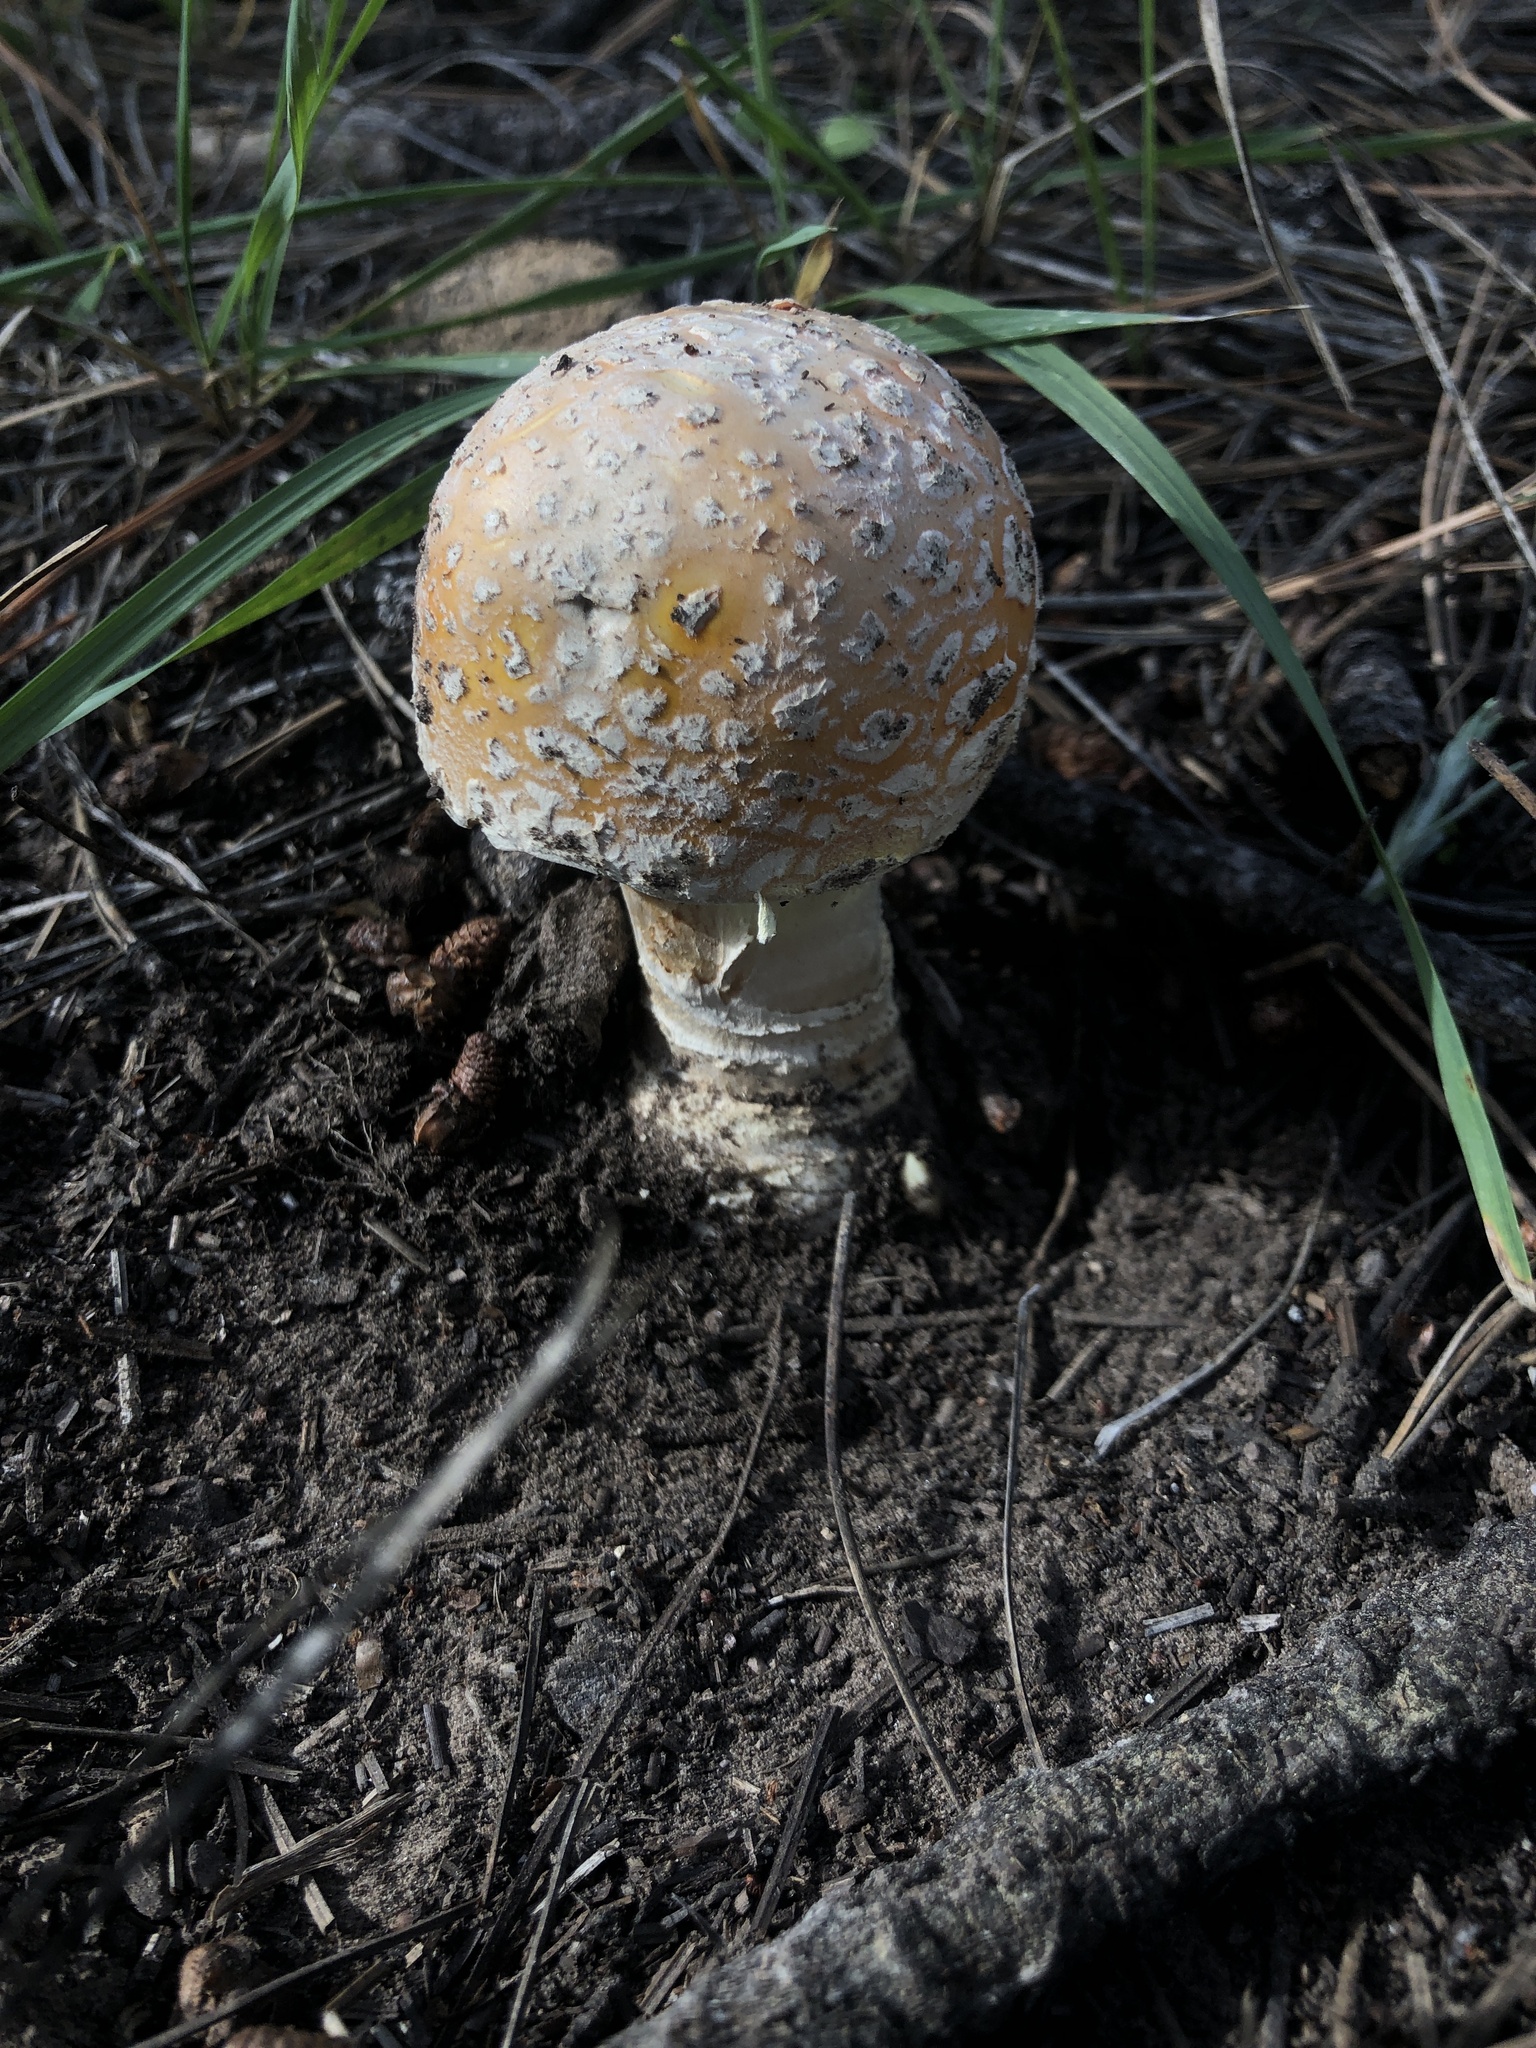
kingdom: Fungi
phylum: Basidiomycota
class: Agaricomycetes
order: Agaricales
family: Amanitaceae
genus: Amanita
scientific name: Amanita muscaria
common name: Fly agaric
